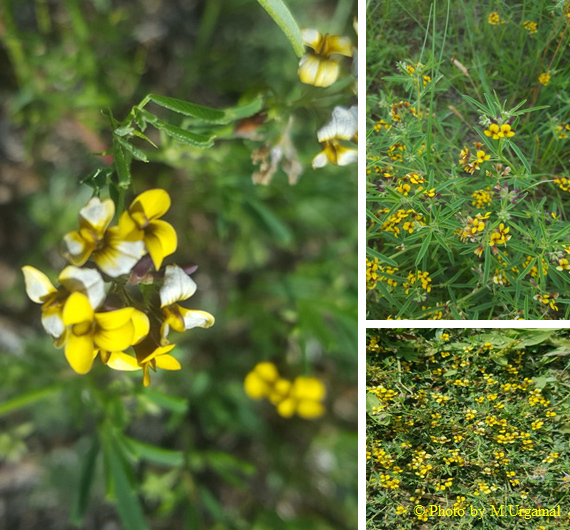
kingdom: Plantae
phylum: Tracheophyta
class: Magnoliopsida
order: Fabales
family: Fabaceae
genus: Medicago
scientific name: Medicago ruthenica
